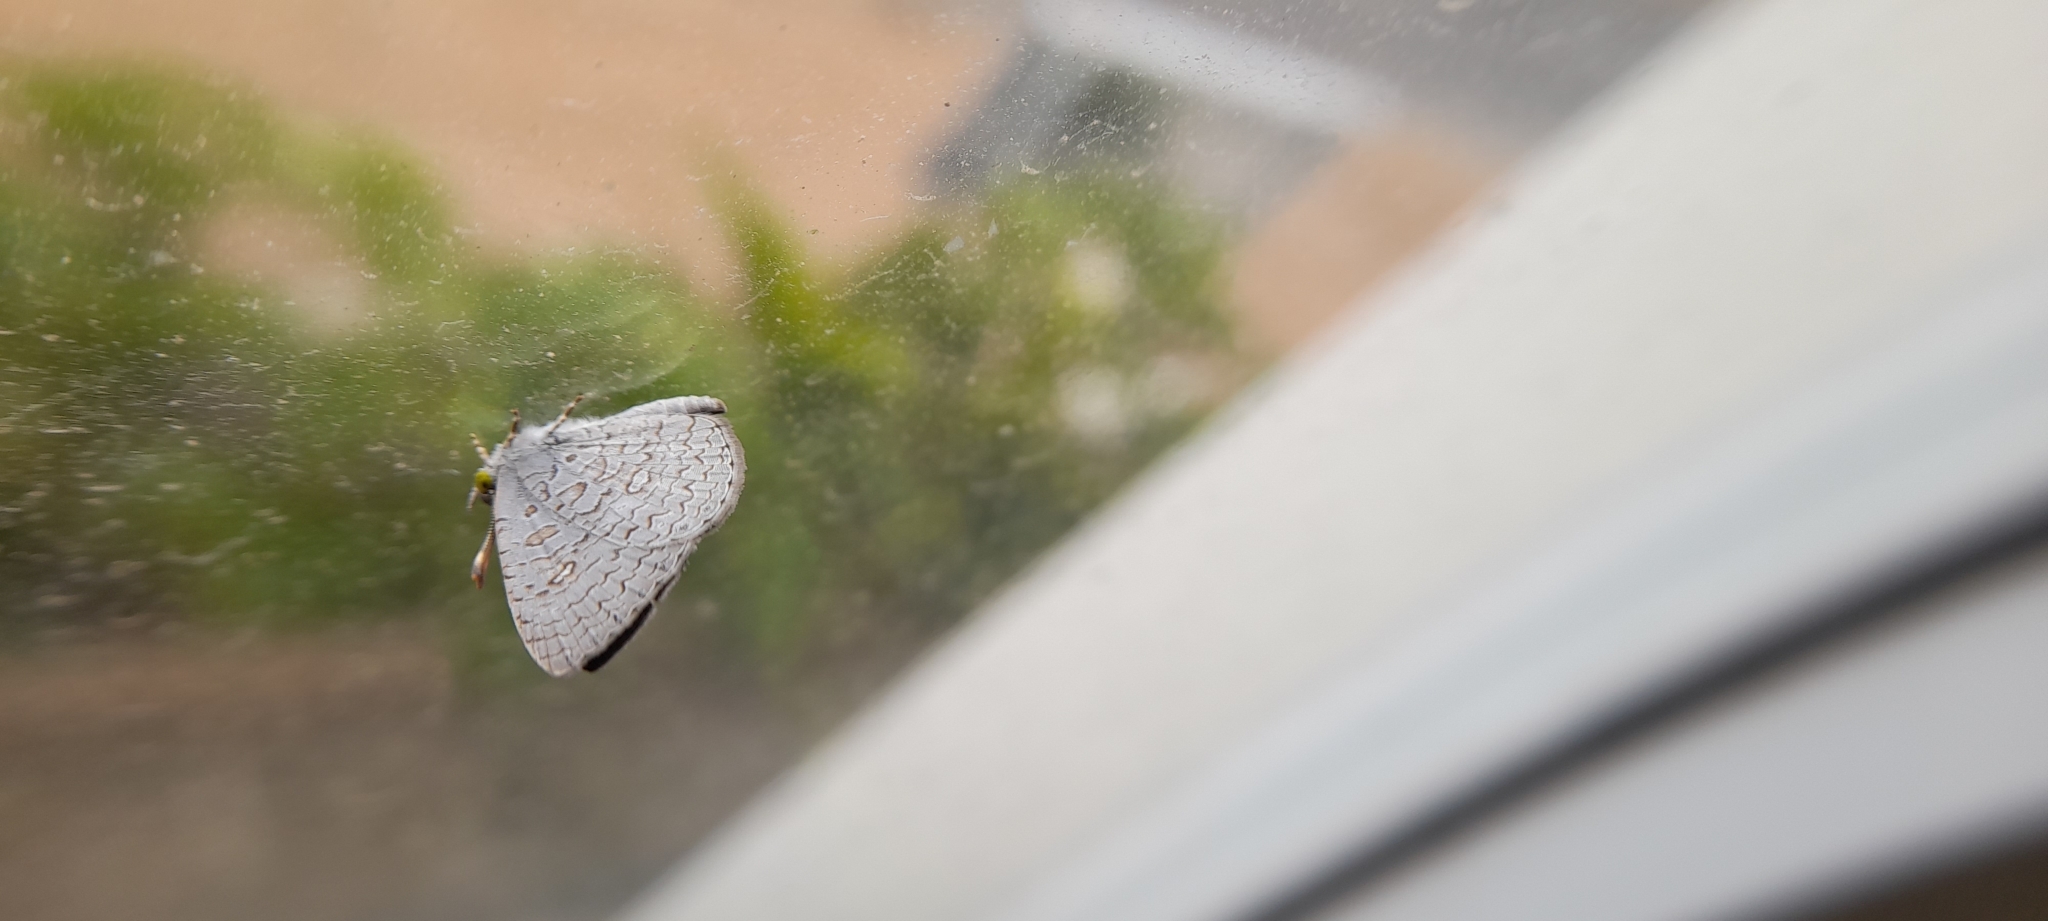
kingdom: Animalia
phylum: Arthropoda
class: Insecta
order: Lepidoptera
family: Lycaenidae
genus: Spalgis
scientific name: Spalgis epius
